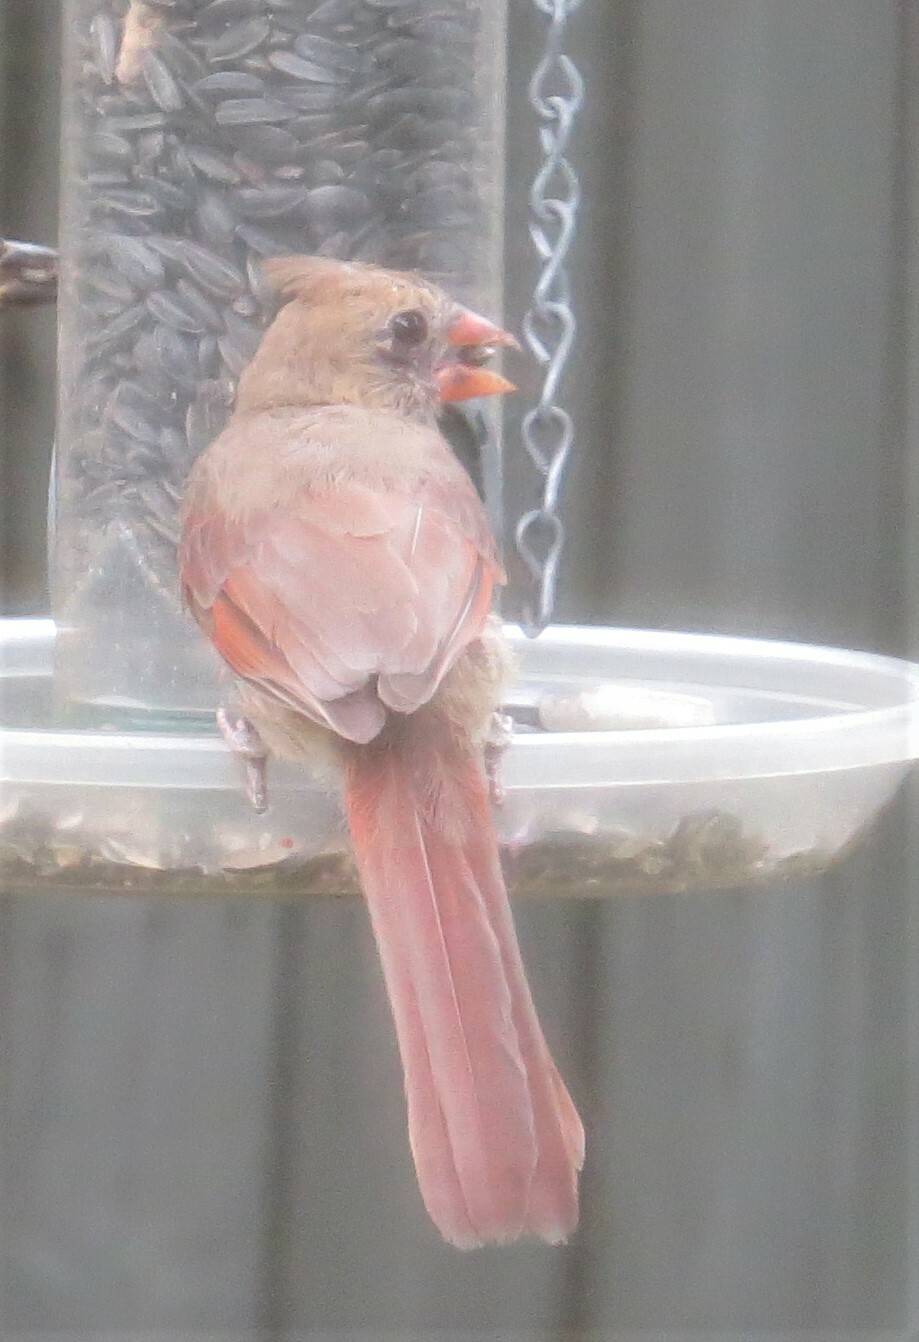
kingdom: Animalia
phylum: Chordata
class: Aves
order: Passeriformes
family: Cardinalidae
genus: Cardinalis
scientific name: Cardinalis cardinalis
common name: Northern cardinal
